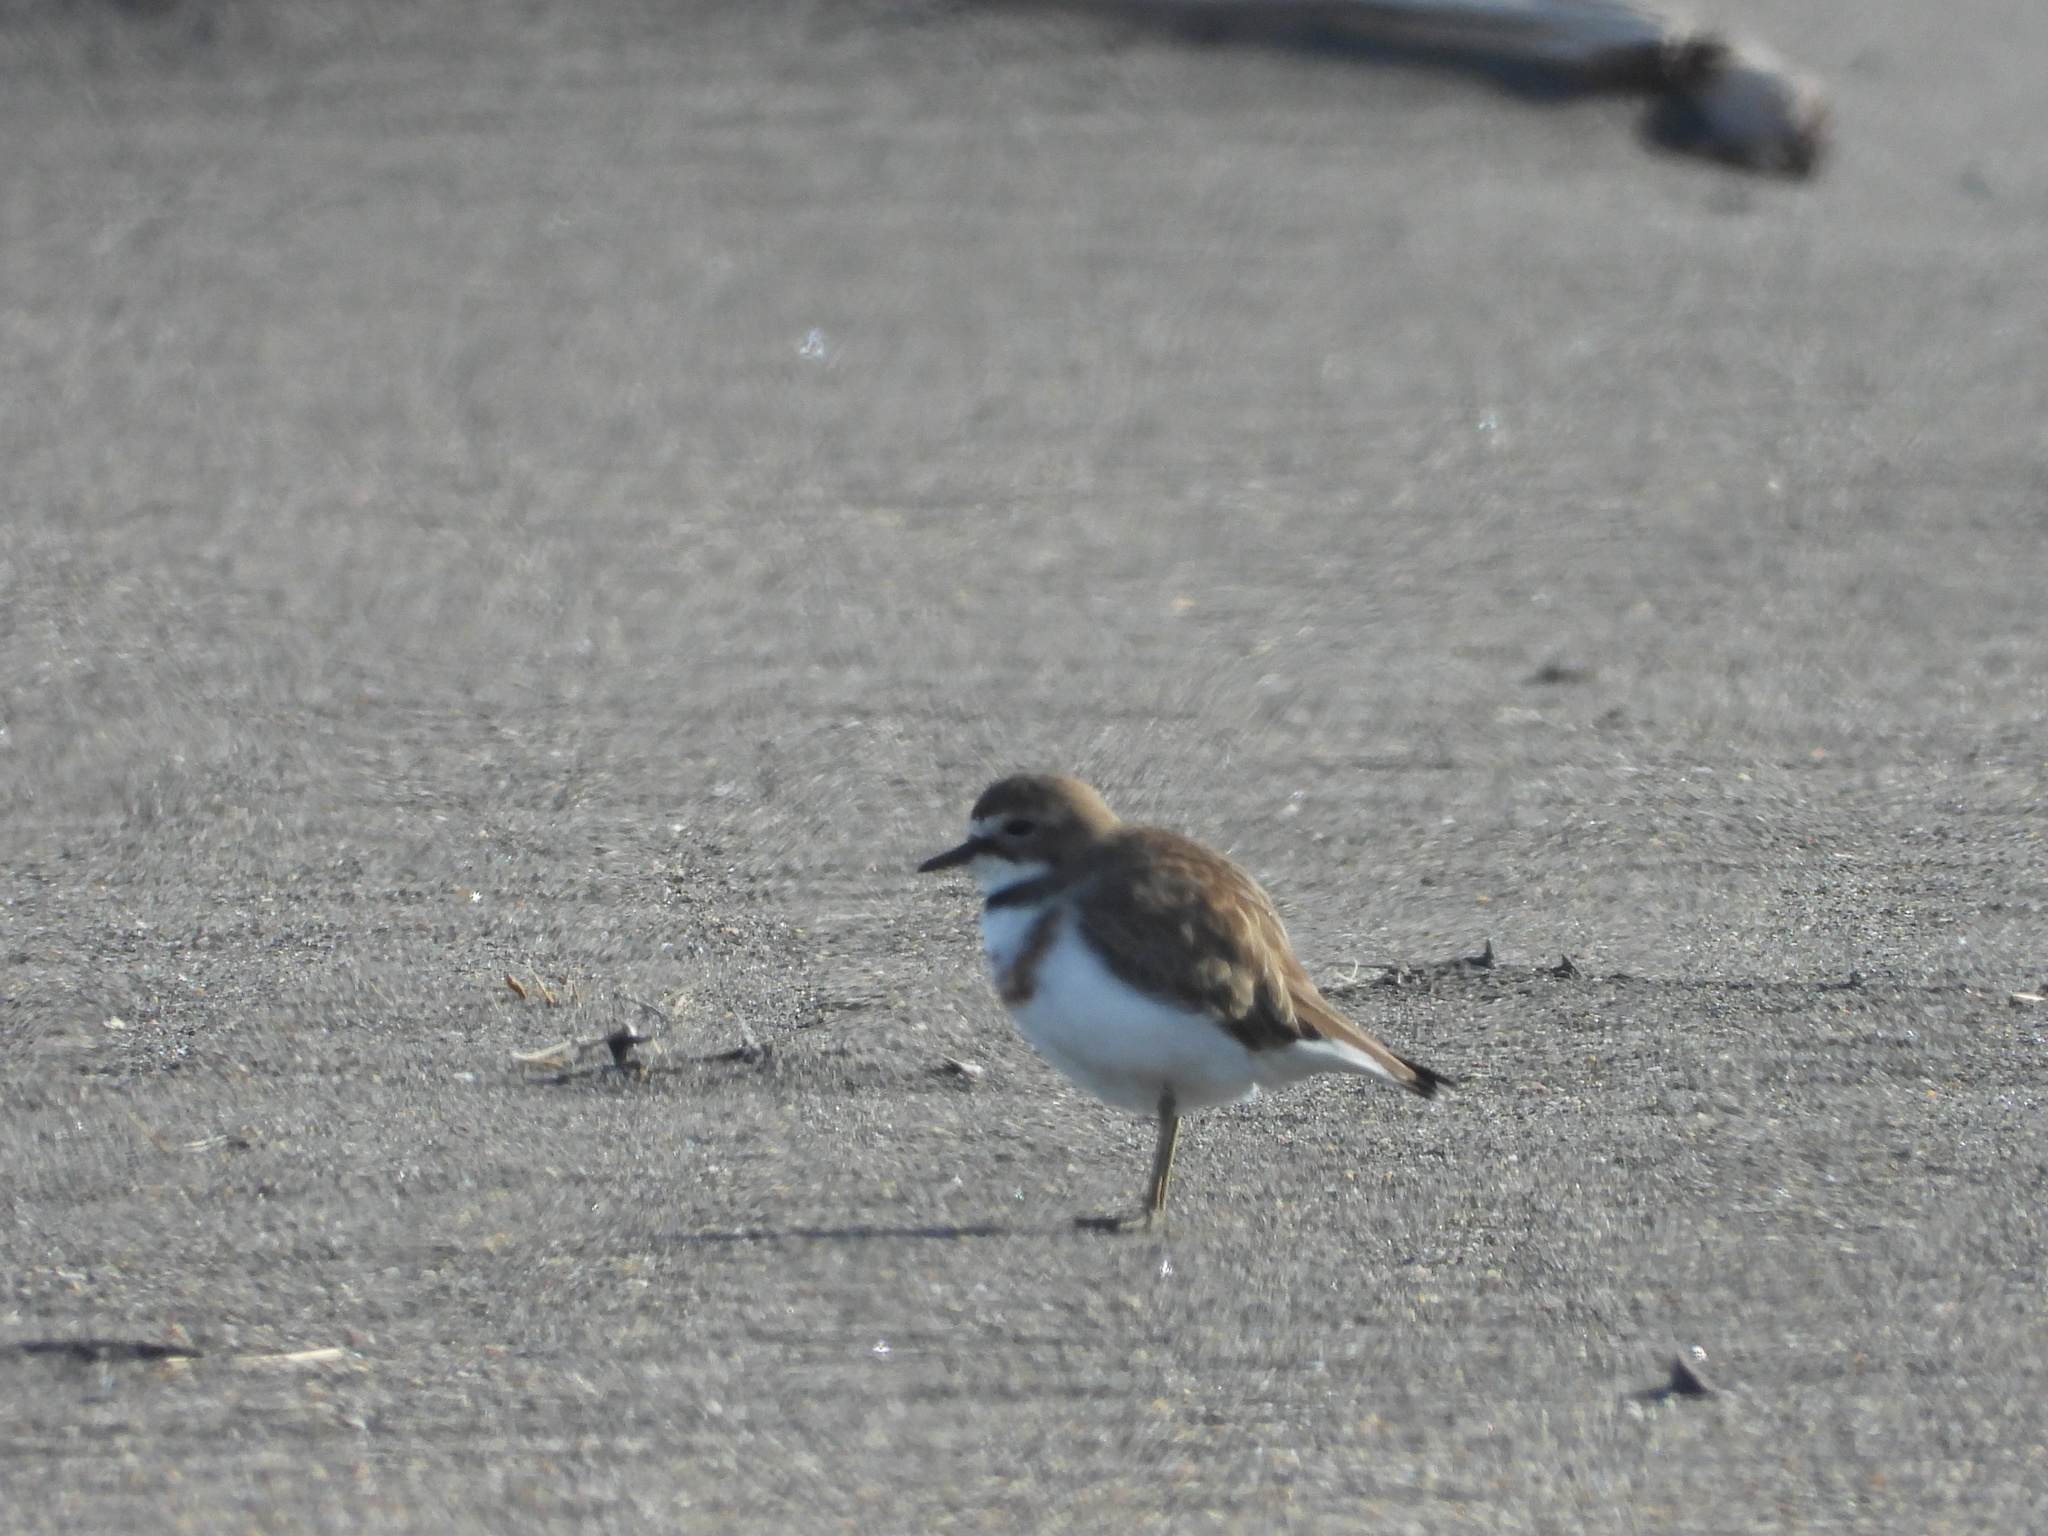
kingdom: Animalia
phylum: Chordata
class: Aves
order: Charadriiformes
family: Charadriidae
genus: Anarhynchus
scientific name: Anarhynchus
